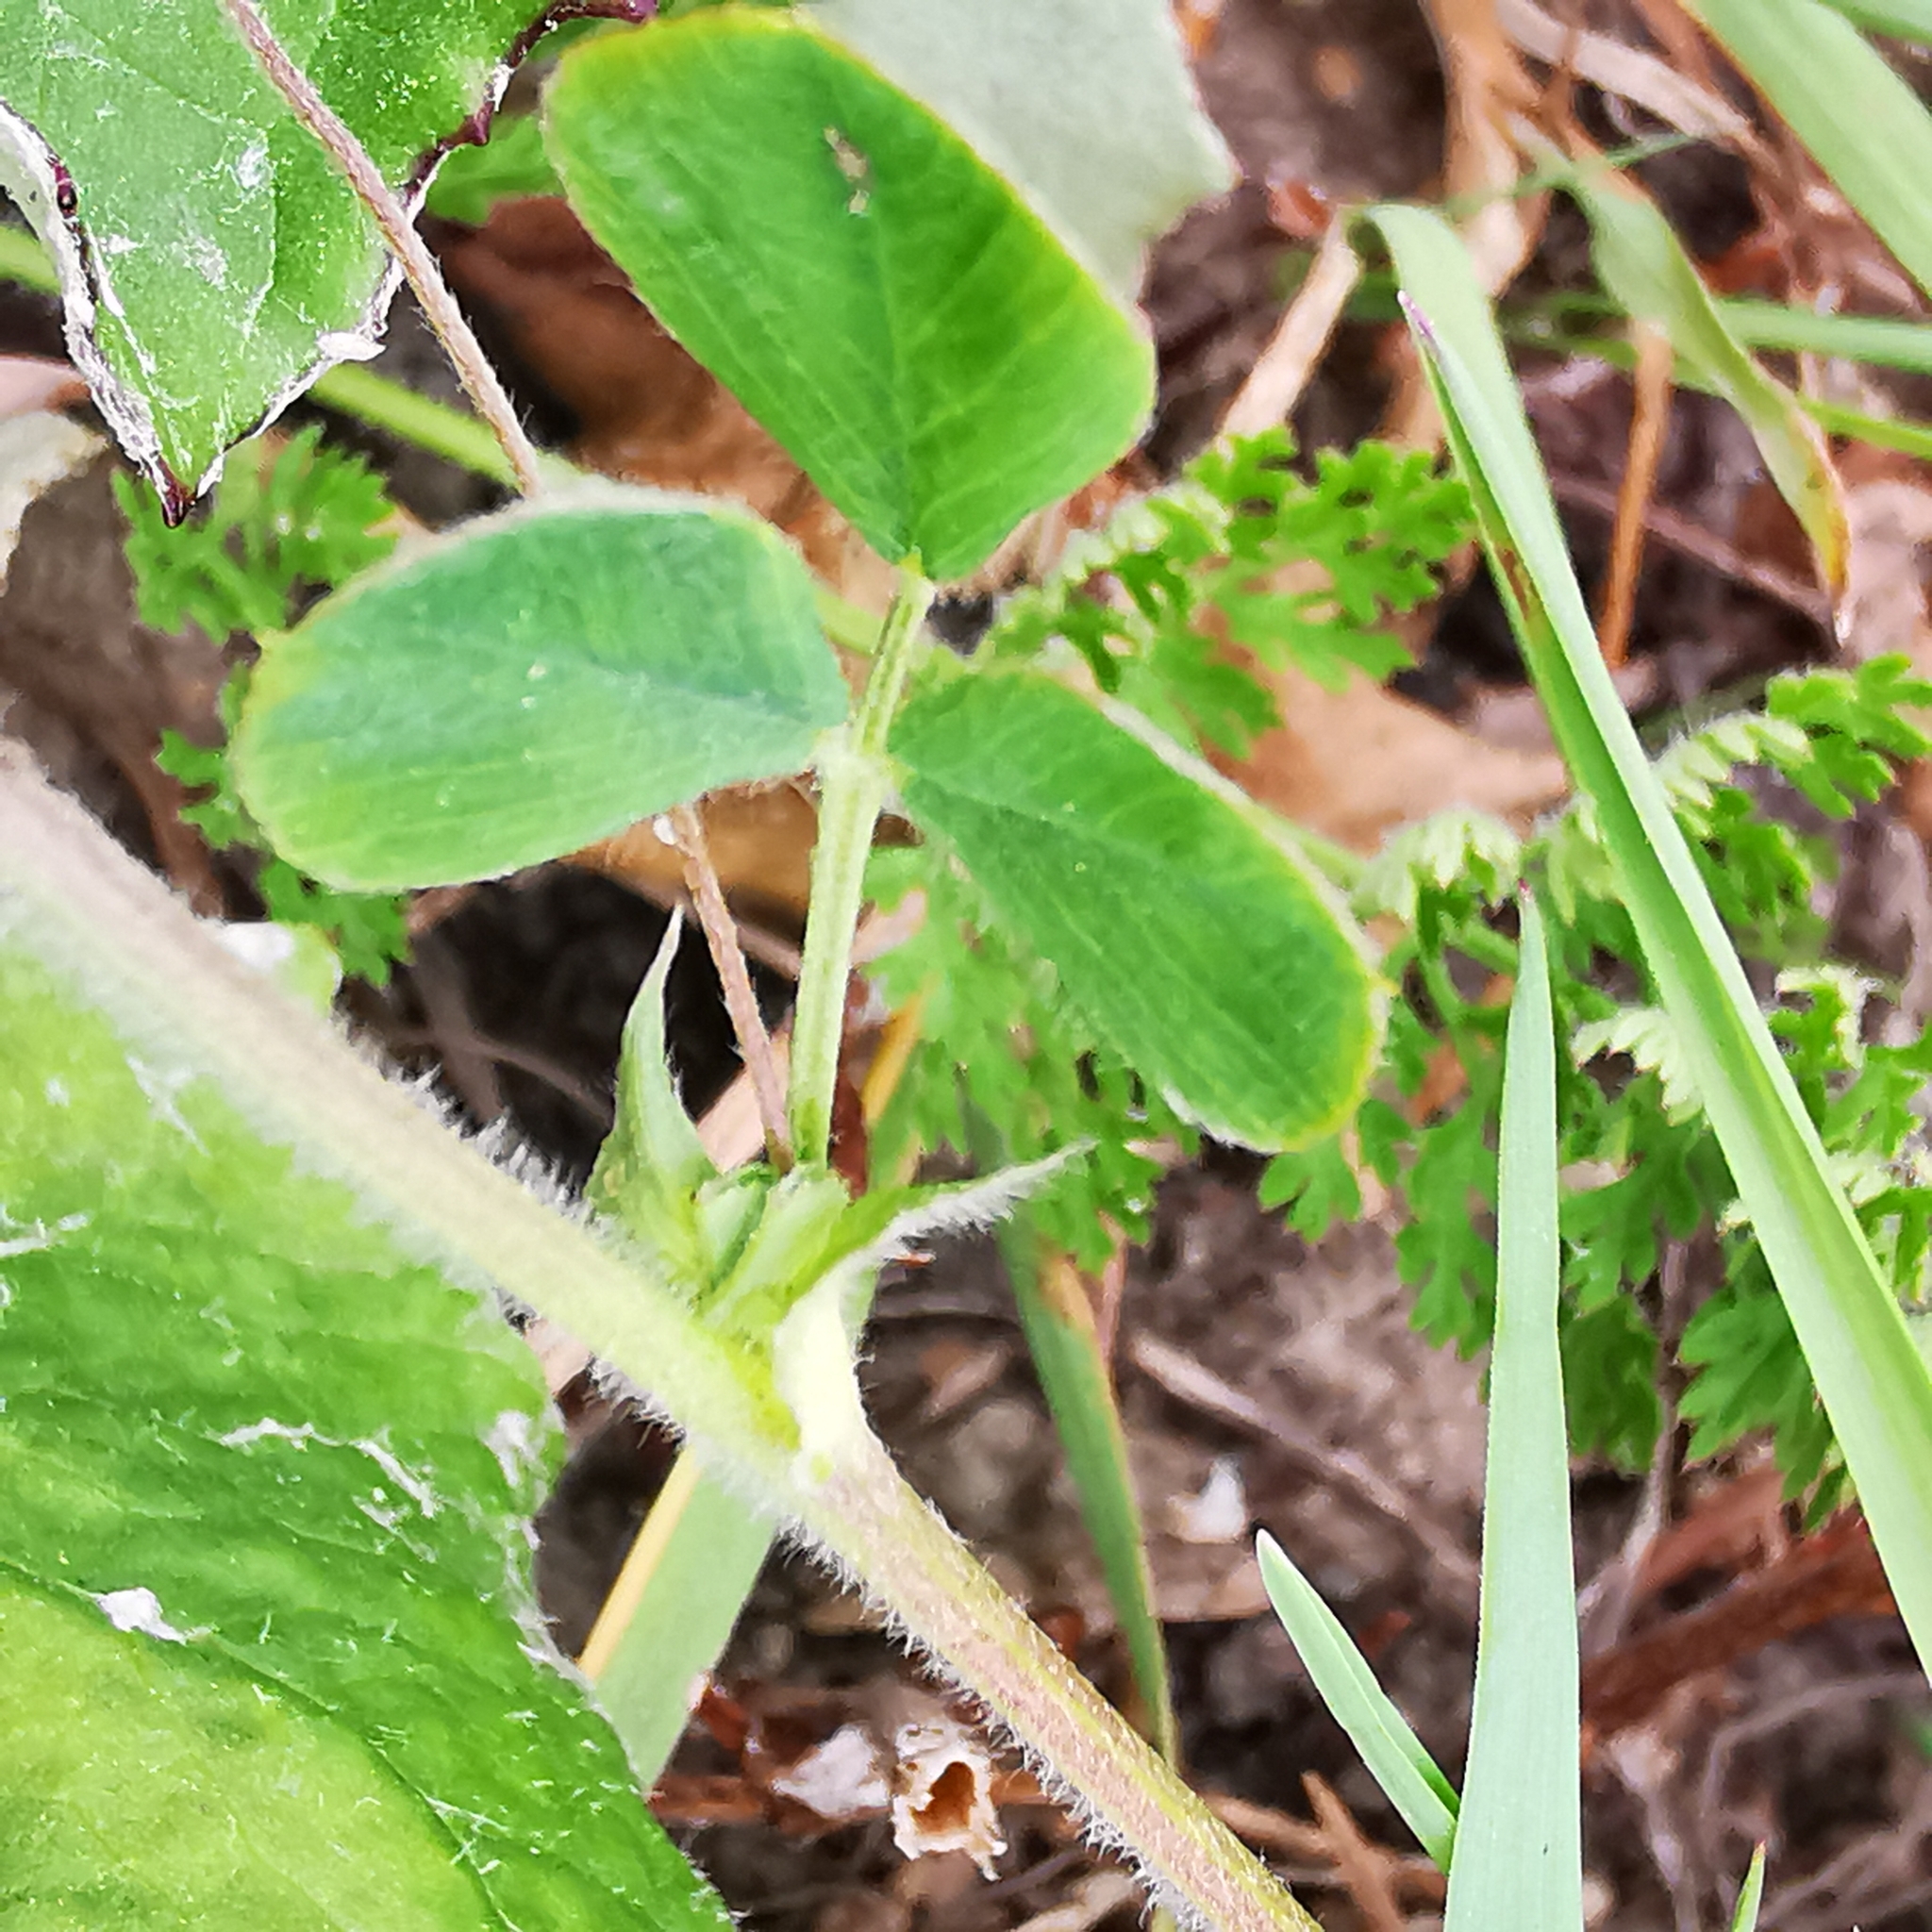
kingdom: Plantae
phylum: Tracheophyta
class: Magnoliopsida
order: Fabales
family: Fabaceae
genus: Medicago
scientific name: Medicago lupulina
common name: Black medick
